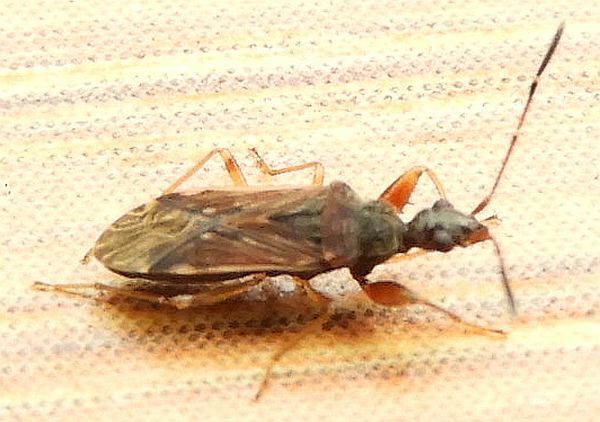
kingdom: Animalia
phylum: Arthropoda
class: Insecta
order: Hemiptera
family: Rhyparochromidae
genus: Heraeus
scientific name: Heraeus plebejus
